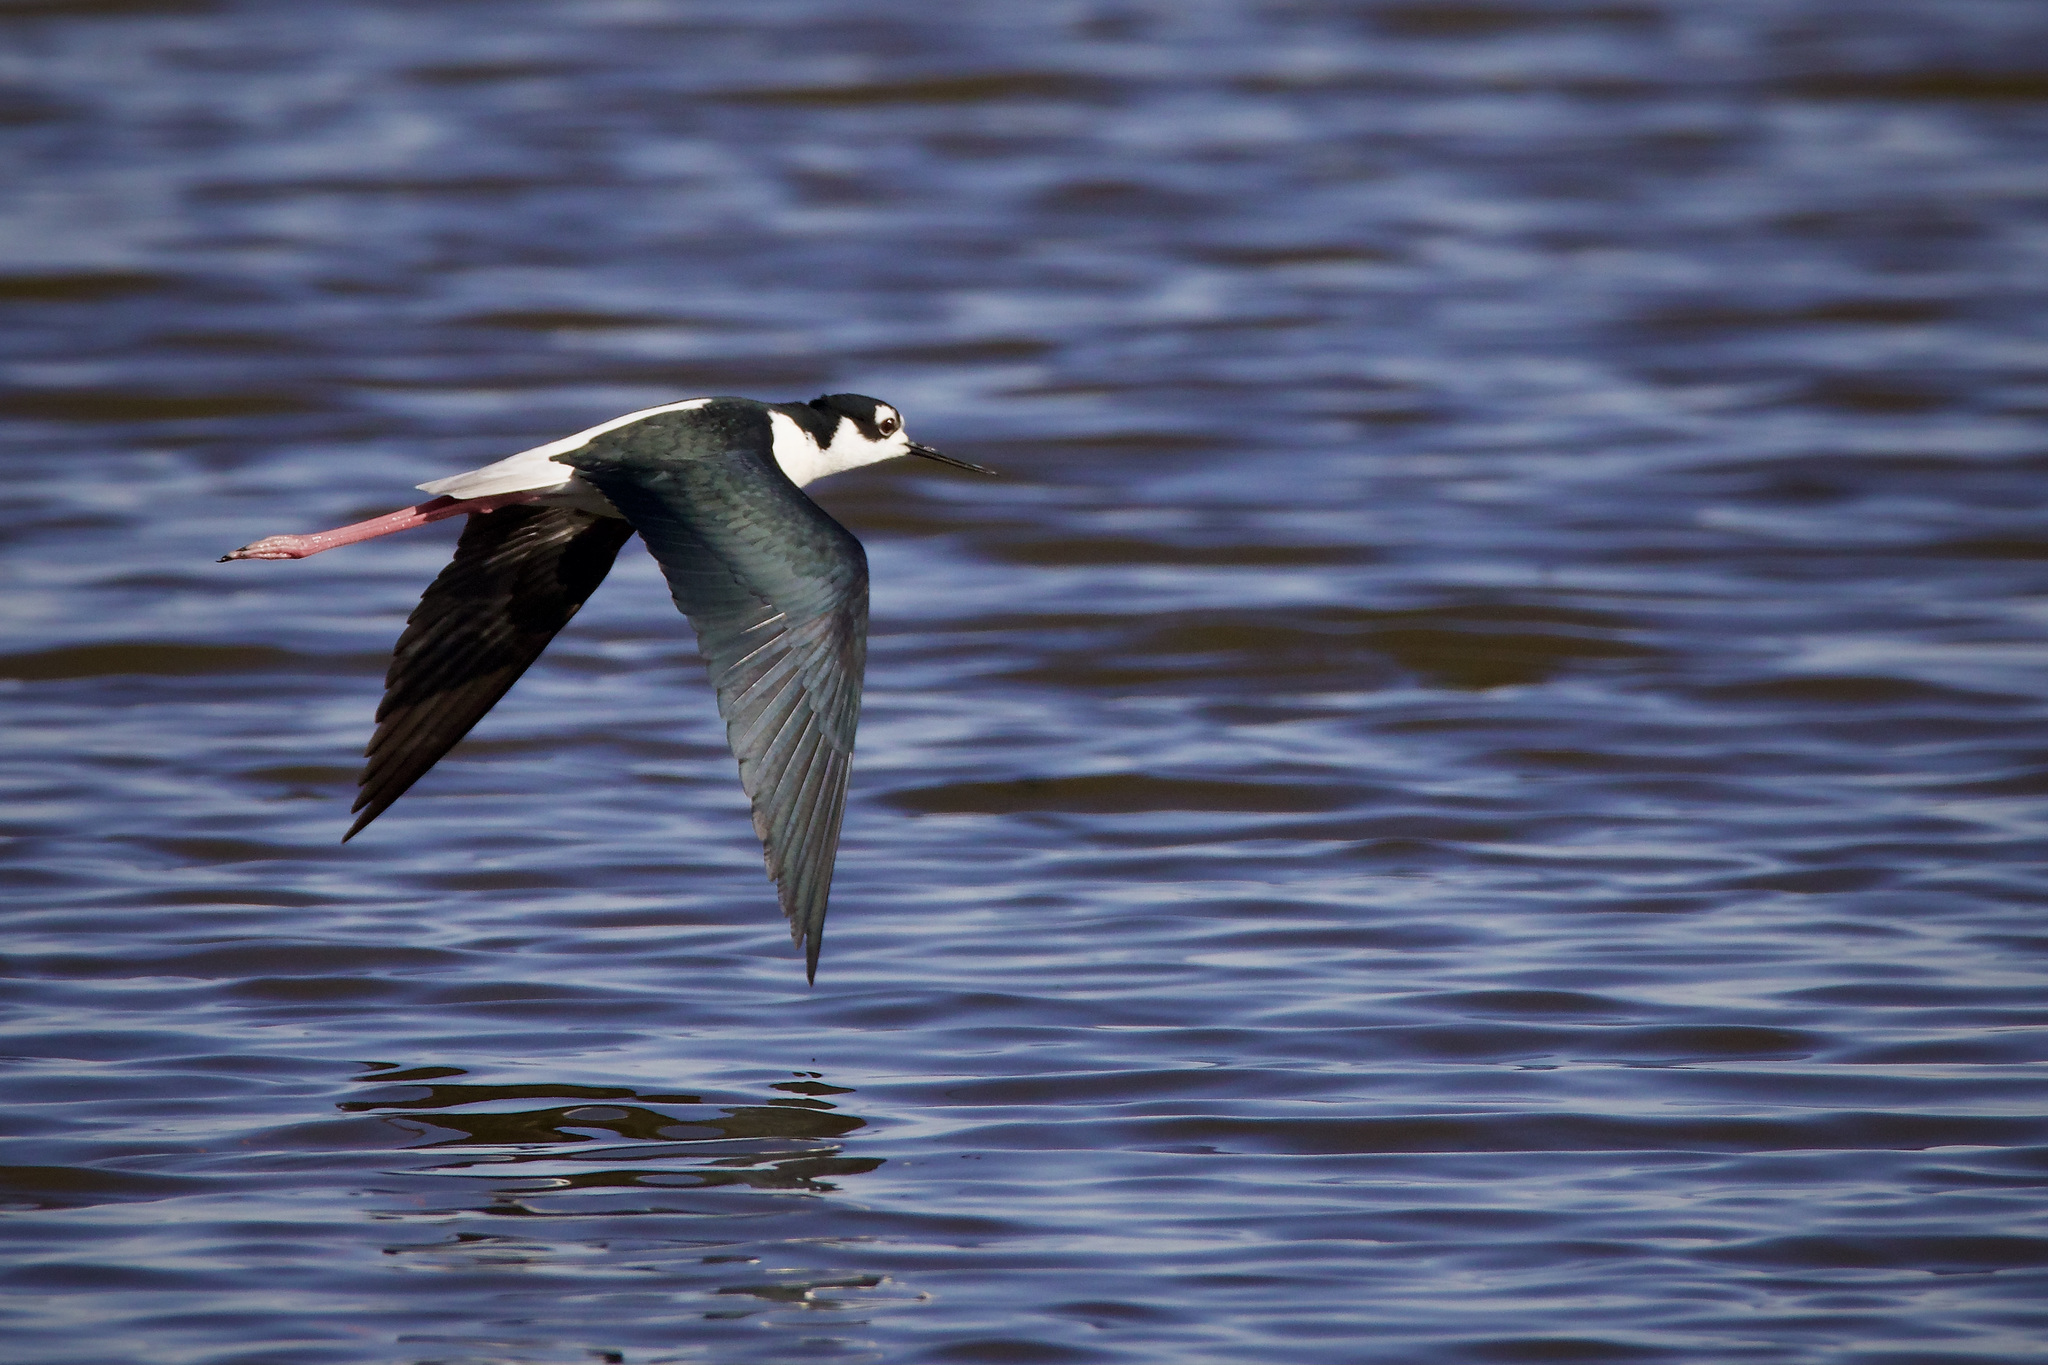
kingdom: Animalia
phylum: Chordata
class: Aves
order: Charadriiformes
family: Recurvirostridae
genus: Himantopus
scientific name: Himantopus mexicanus
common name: Black-necked stilt
